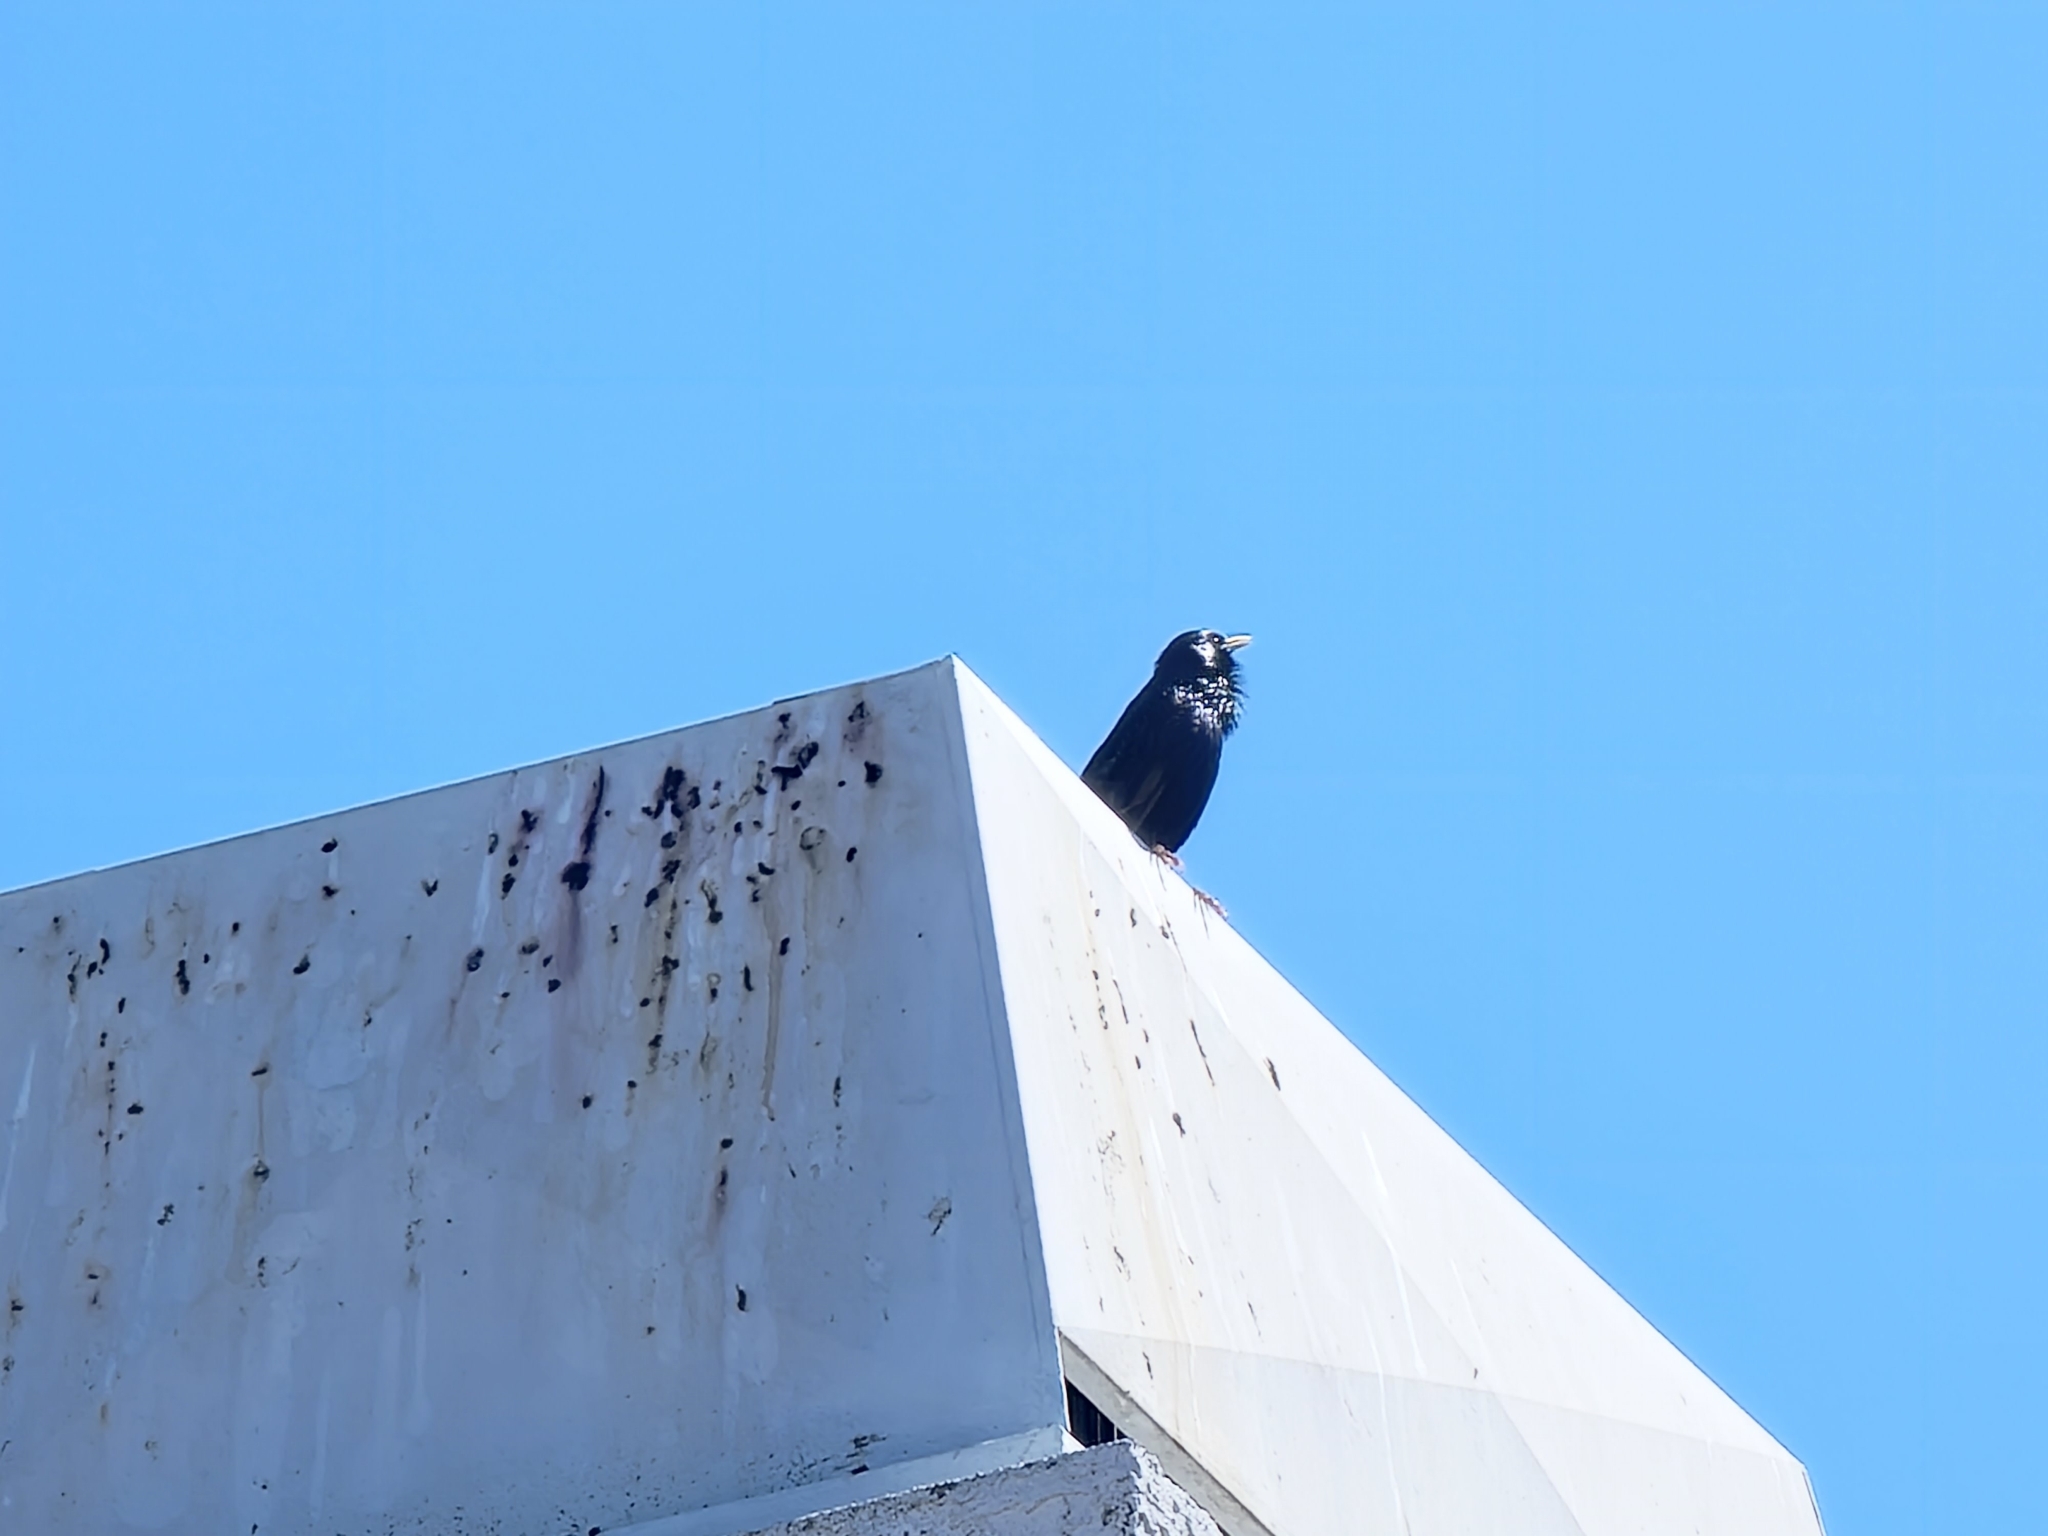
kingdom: Animalia
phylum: Chordata
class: Aves
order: Passeriformes
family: Sturnidae
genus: Sturnus
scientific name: Sturnus vulgaris
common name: Common starling
